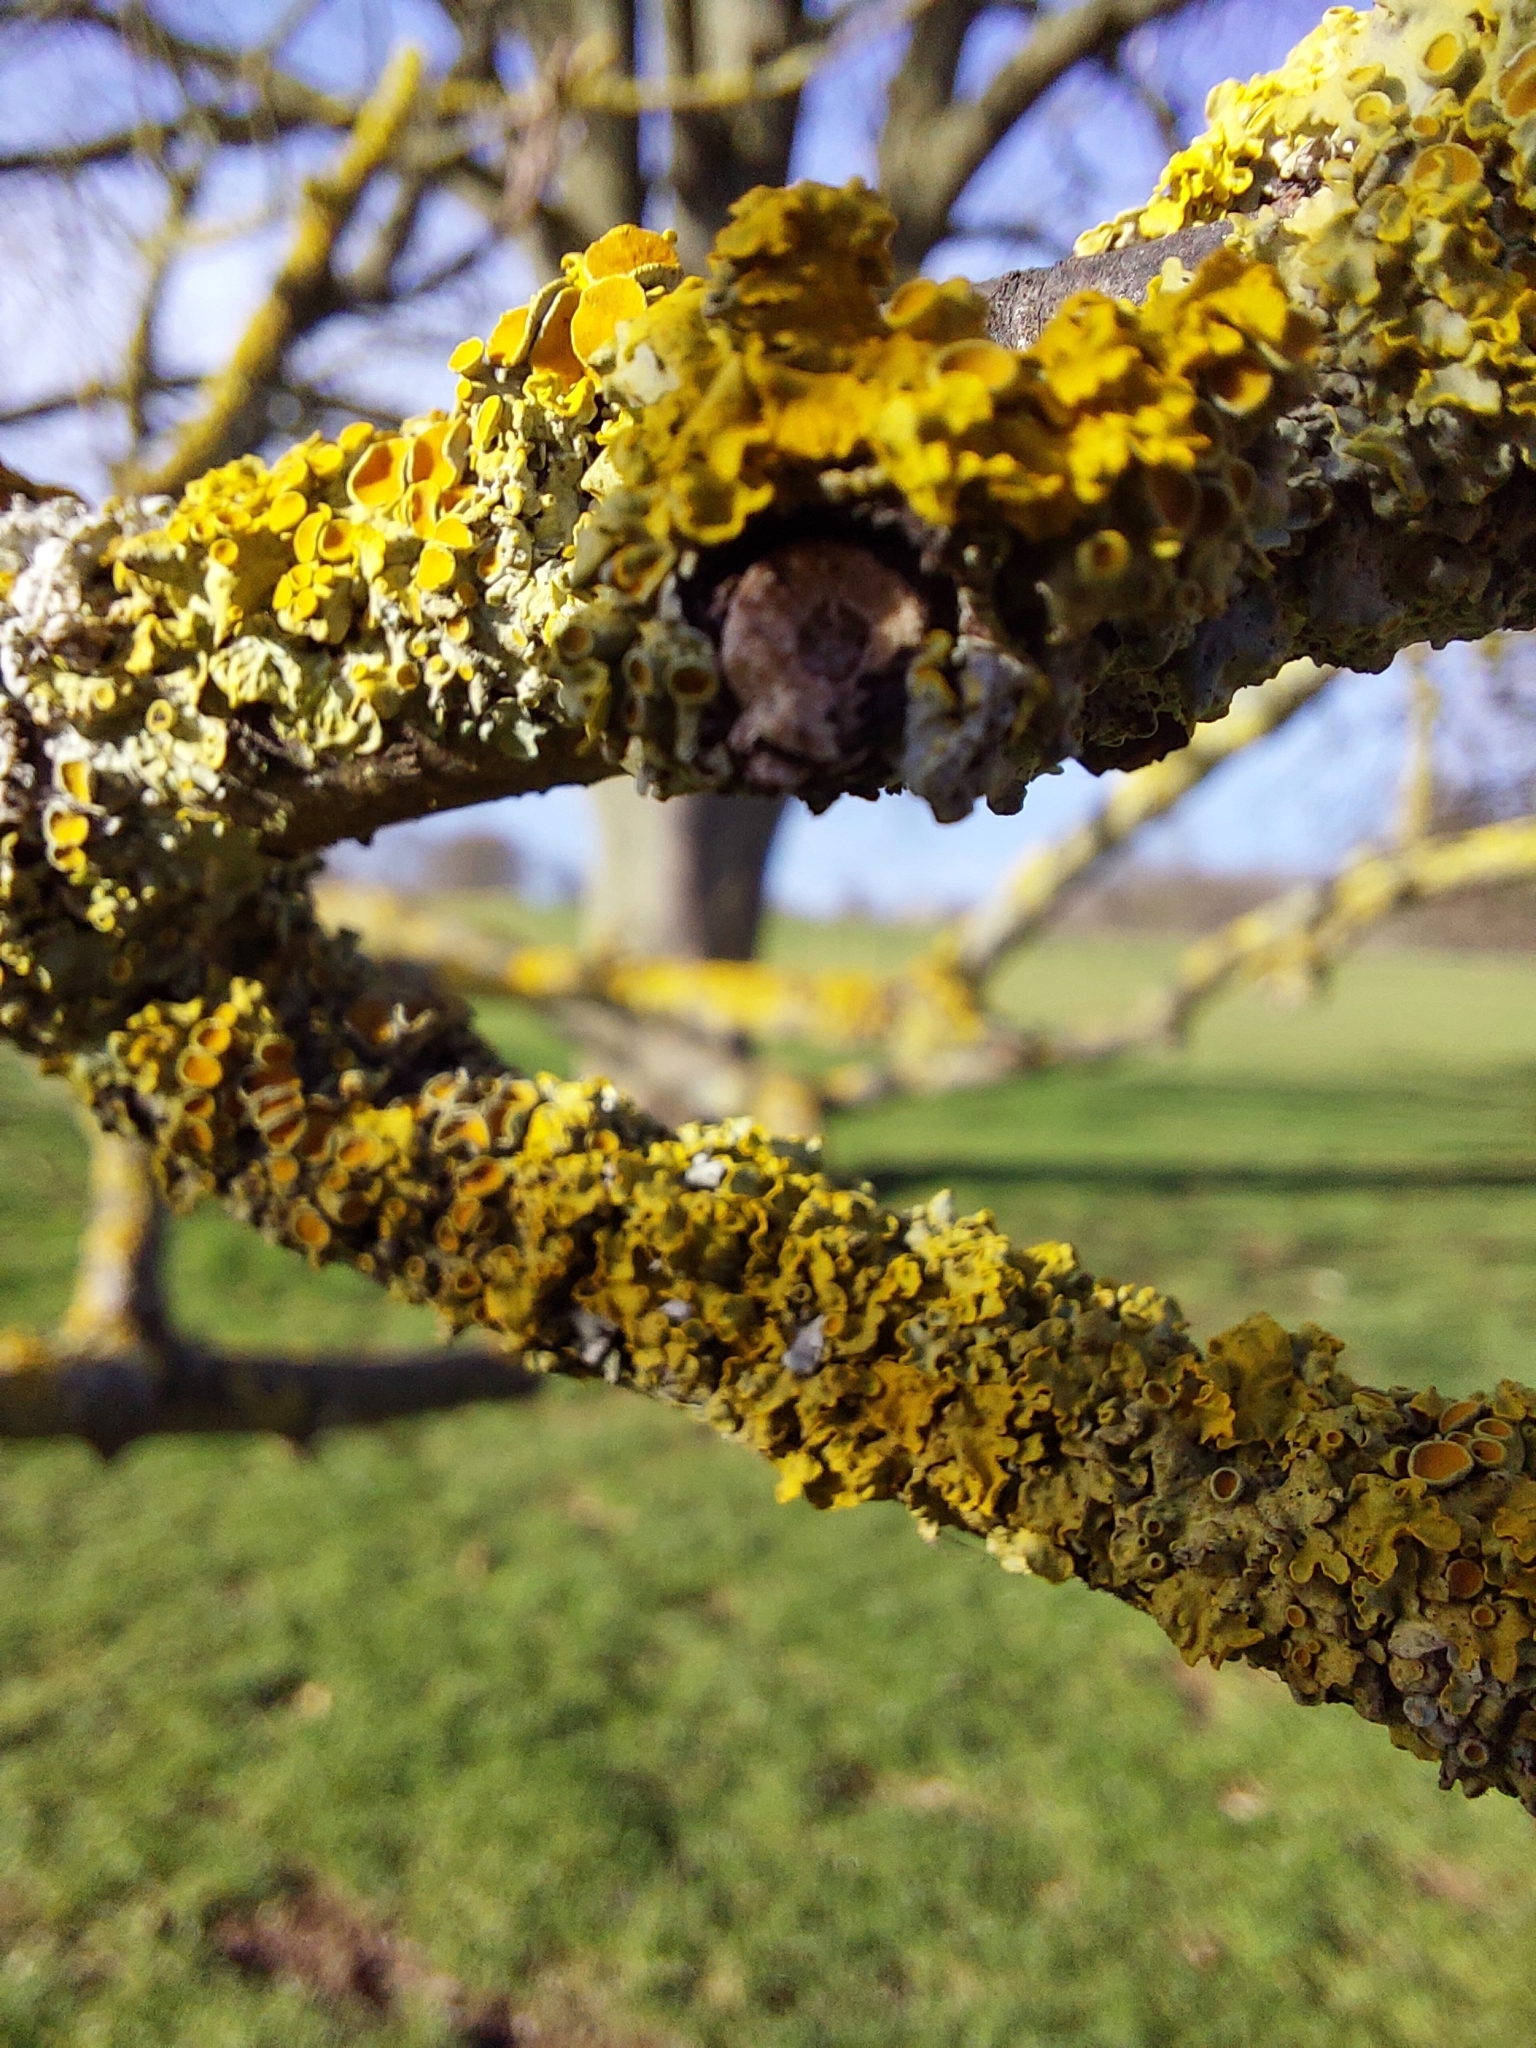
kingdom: Fungi
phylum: Ascomycota
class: Lecanoromycetes
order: Teloschistales
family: Teloschistaceae
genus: Xanthoria
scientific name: Xanthoria parietina
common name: Common orange lichen
